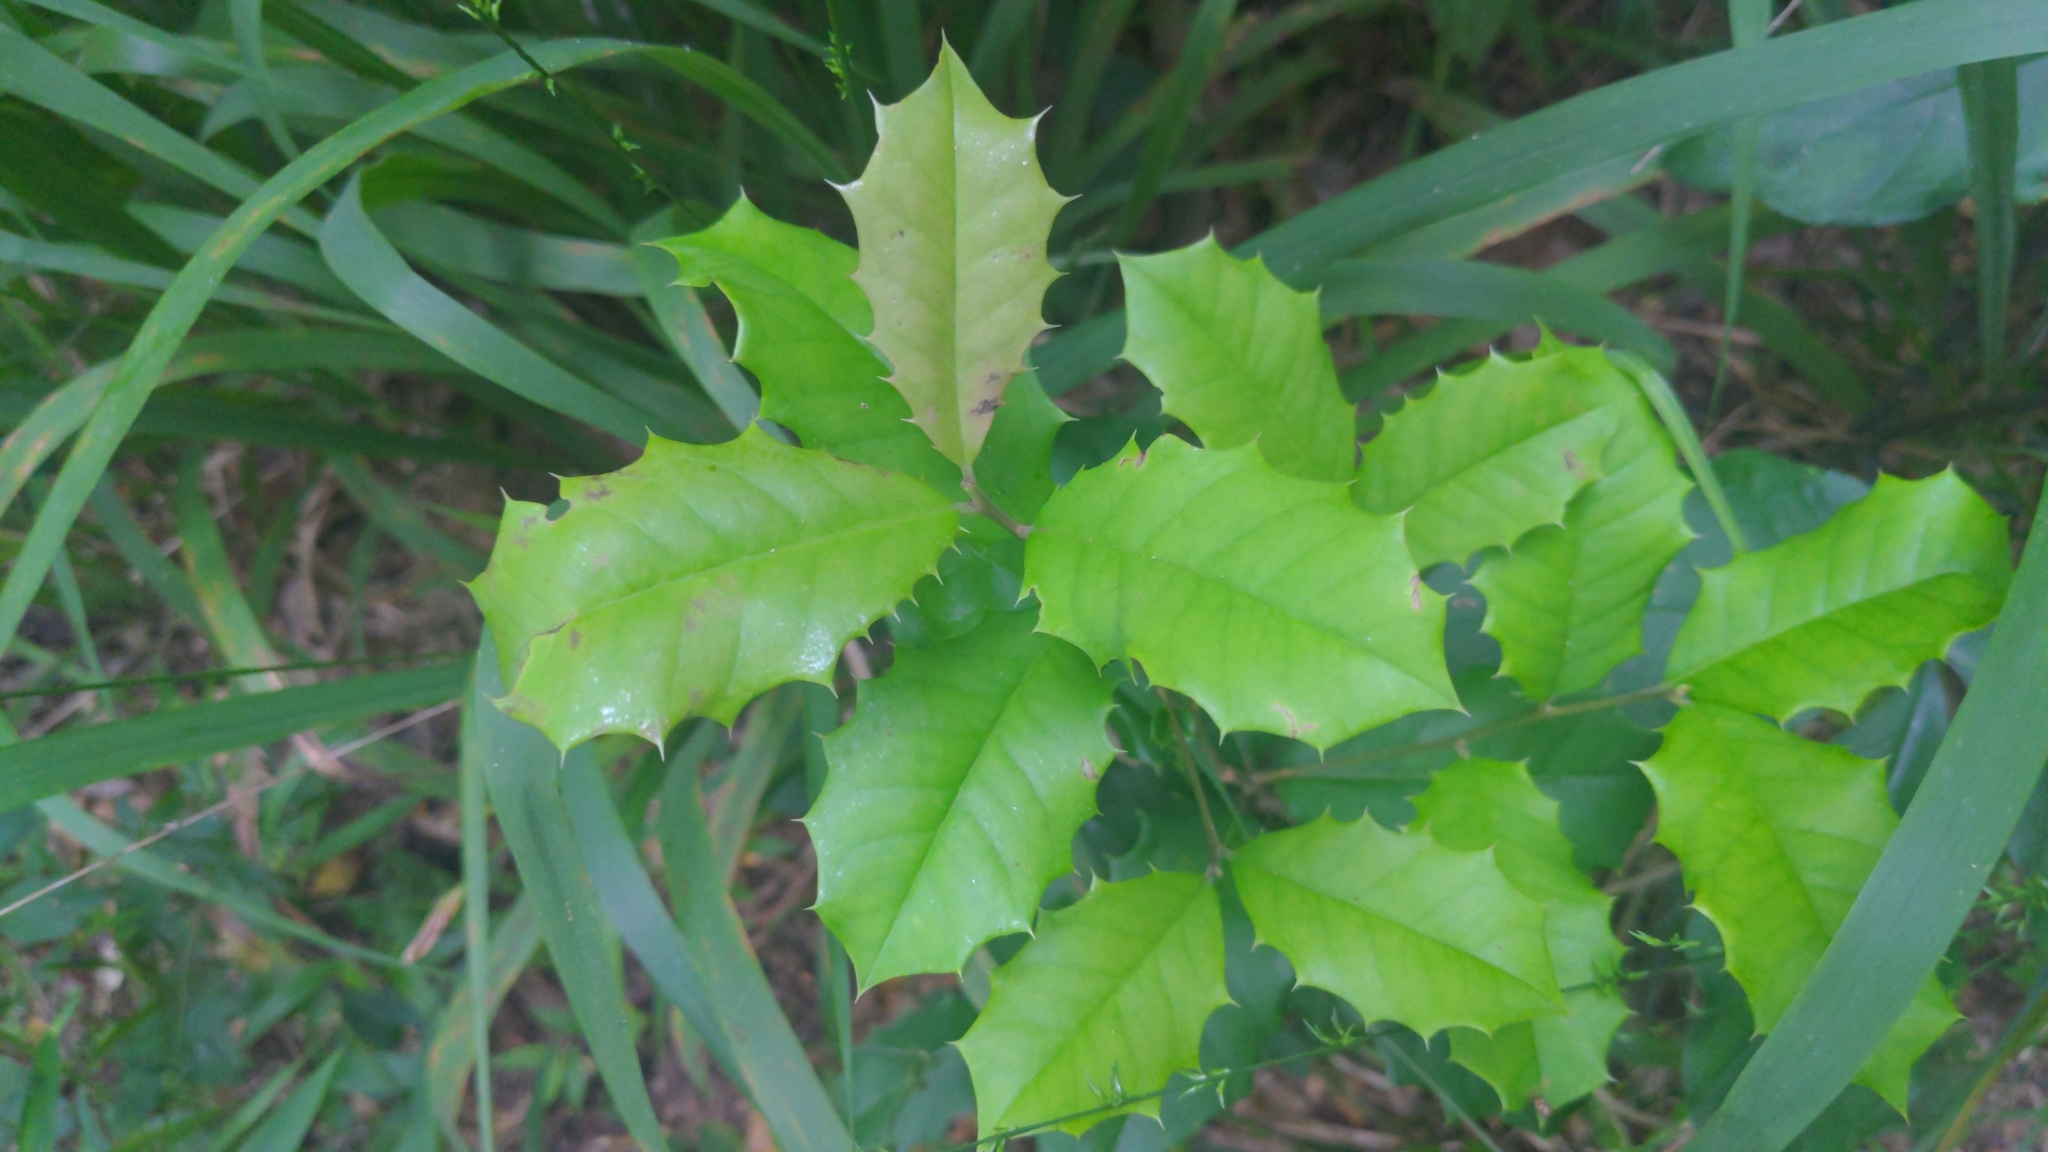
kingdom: Plantae
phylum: Tracheophyta
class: Magnoliopsida
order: Aquifoliales
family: Aquifoliaceae
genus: Ilex
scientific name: Ilex opaca
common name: American holly
